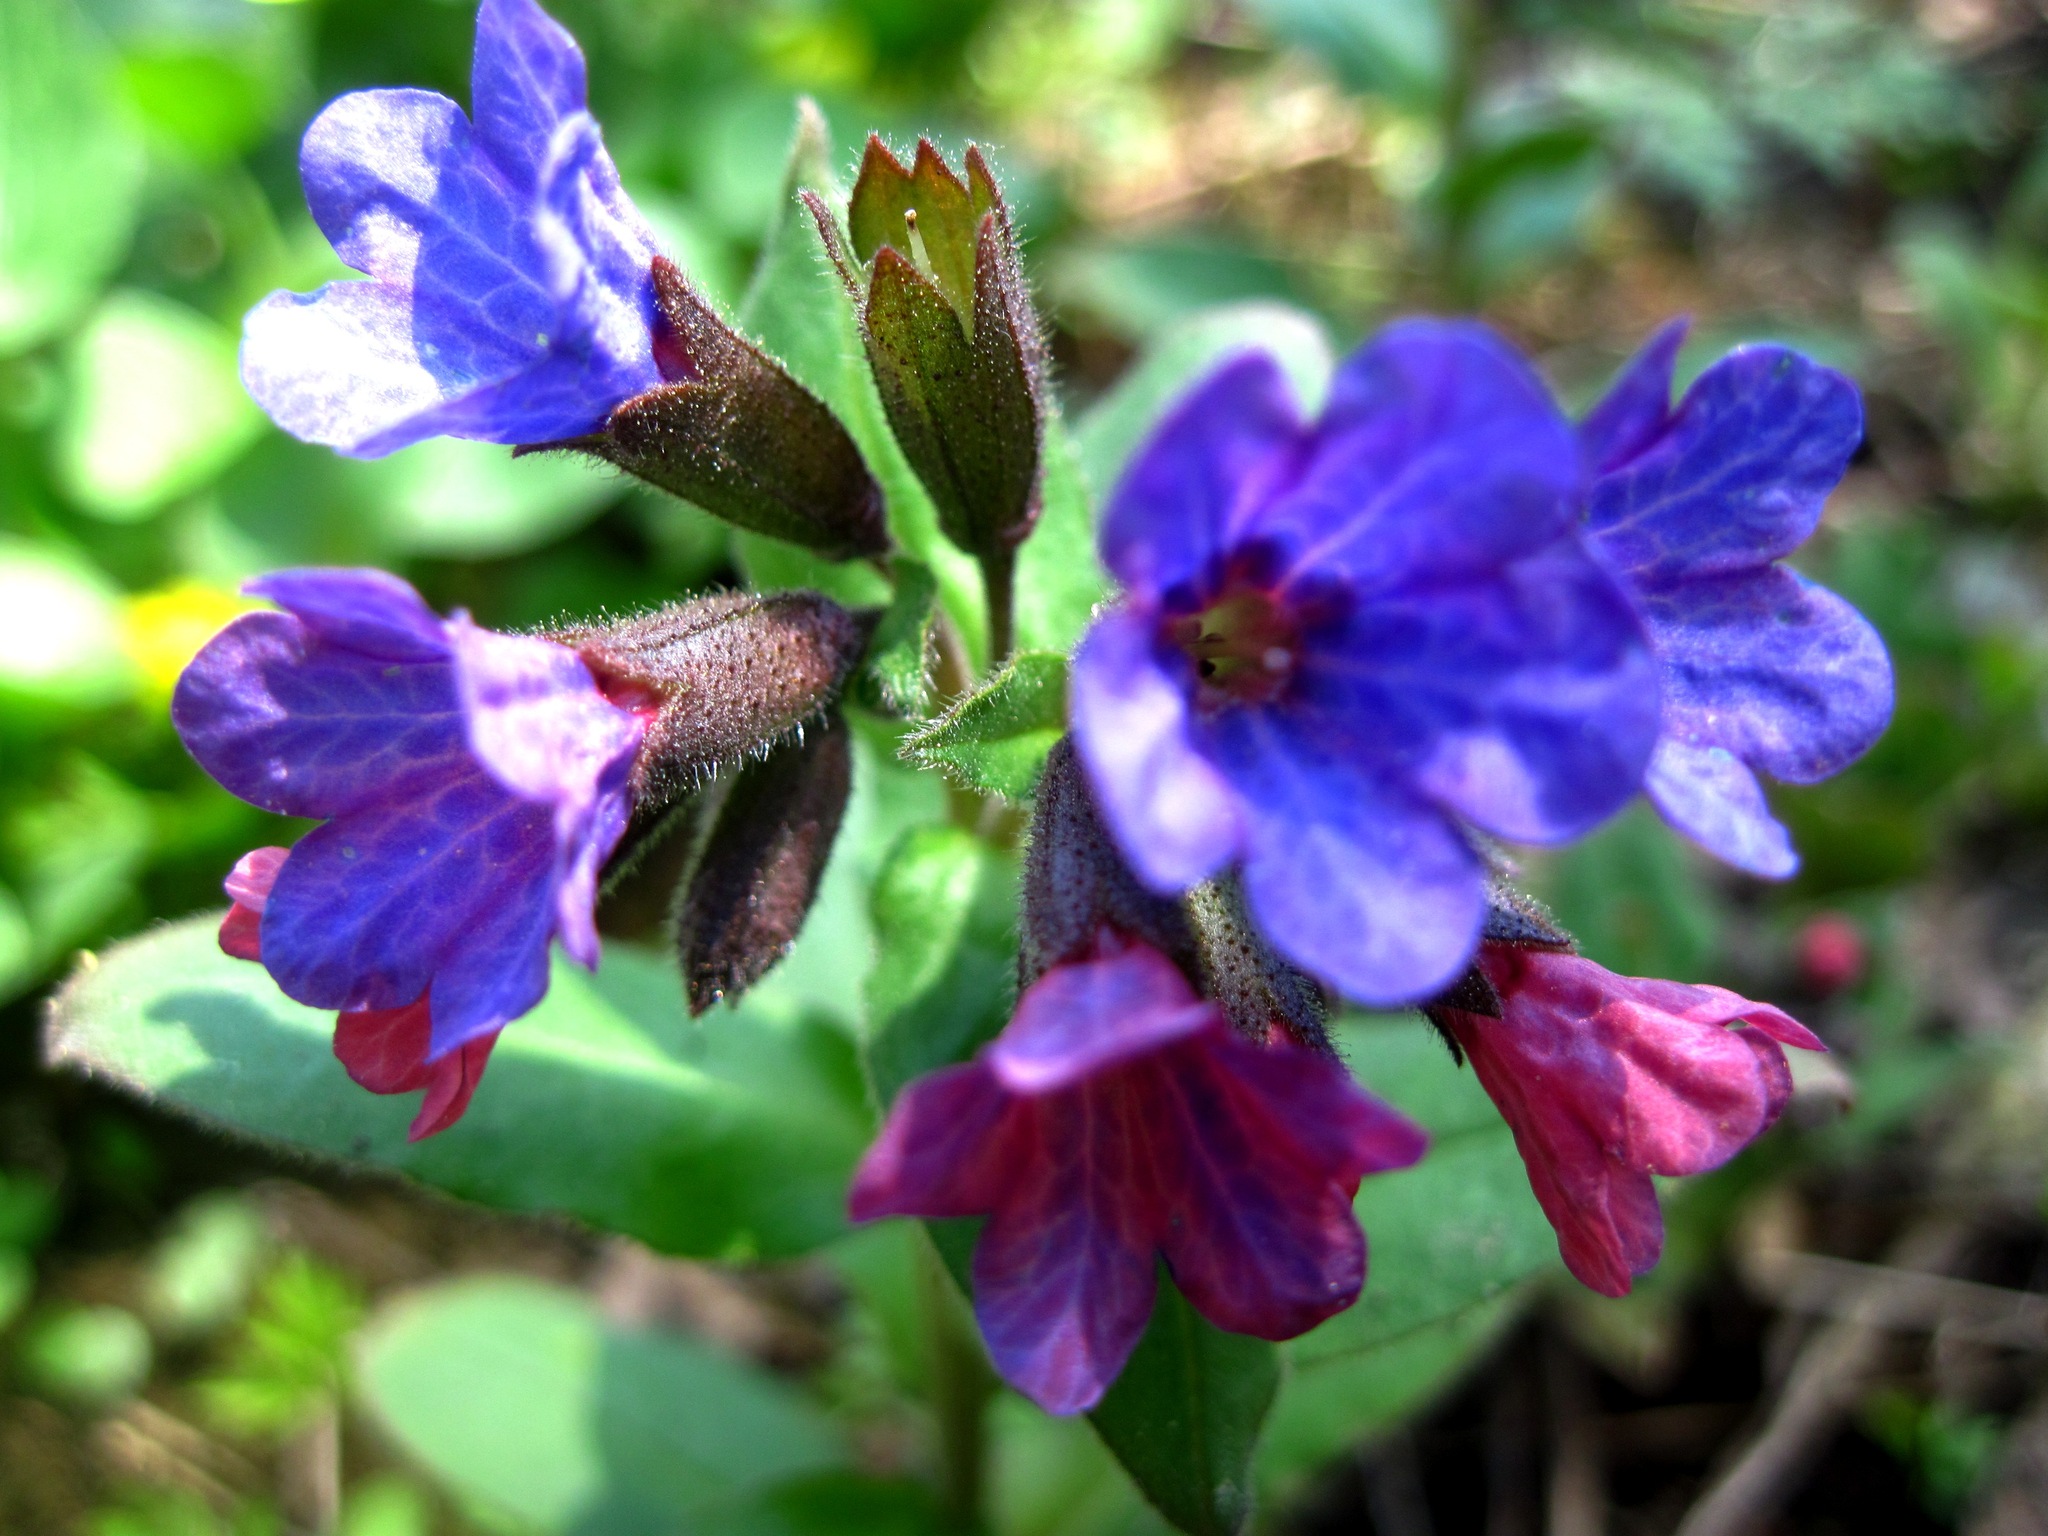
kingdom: Plantae
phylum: Tracheophyta
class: Magnoliopsida
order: Boraginales
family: Boraginaceae
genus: Pulmonaria
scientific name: Pulmonaria obscura
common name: Suffolk lungwort
